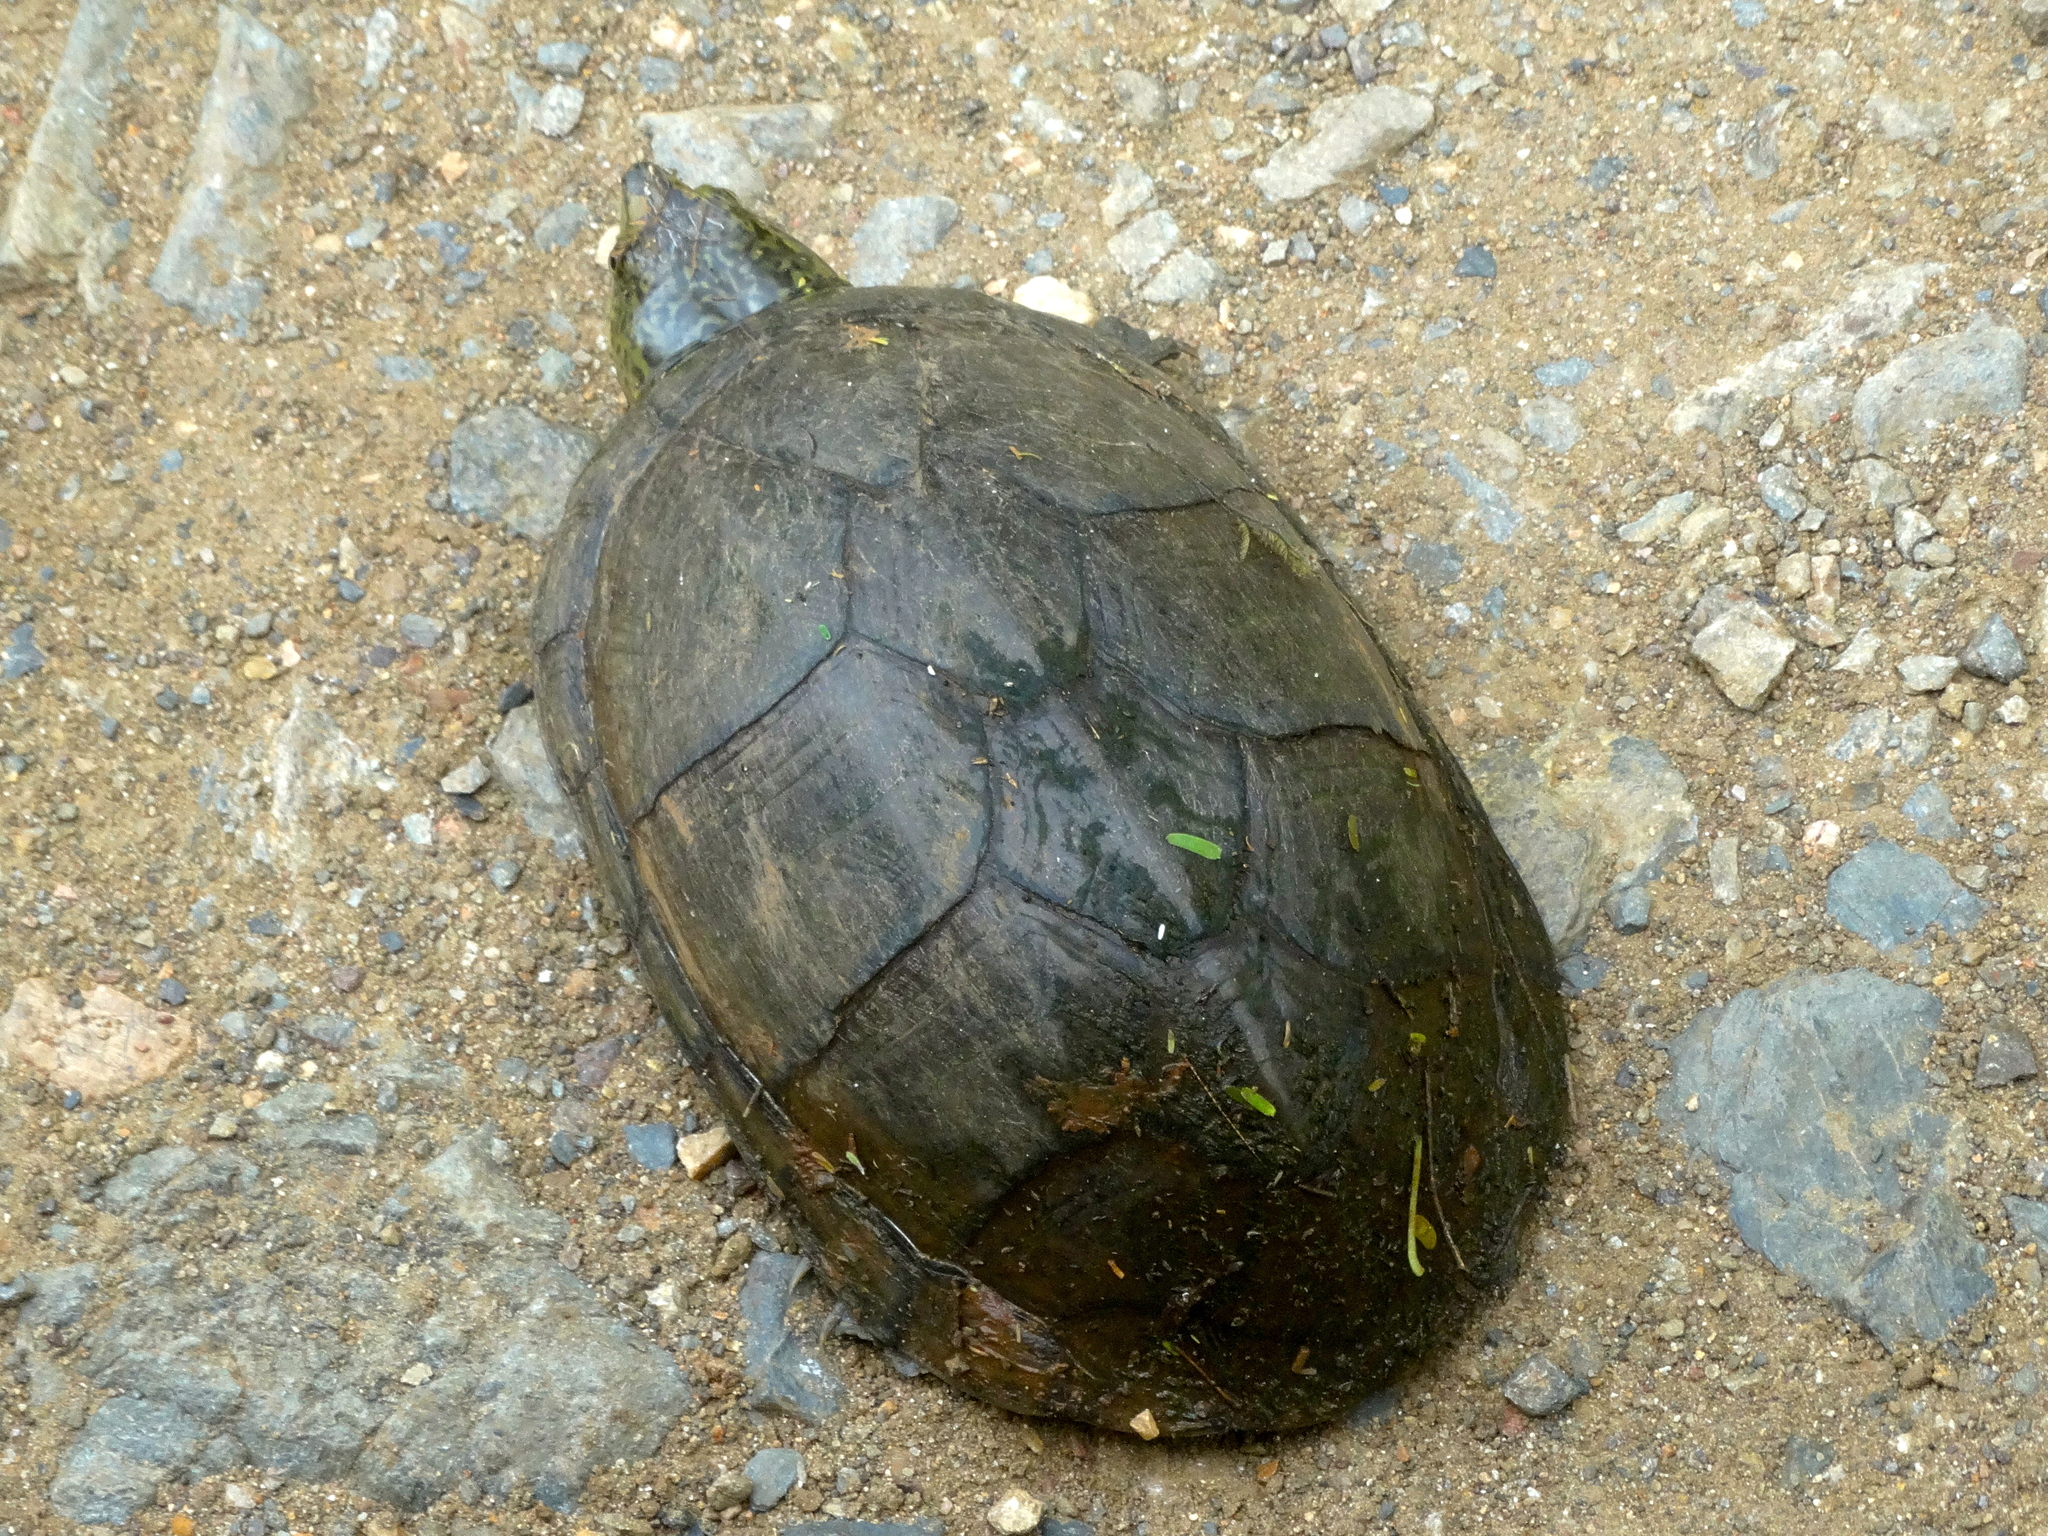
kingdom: Animalia
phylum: Chordata
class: Testudines
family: Kinosternidae
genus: Kinosternon
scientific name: Kinosternon integrum
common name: Mexican mud turtle
